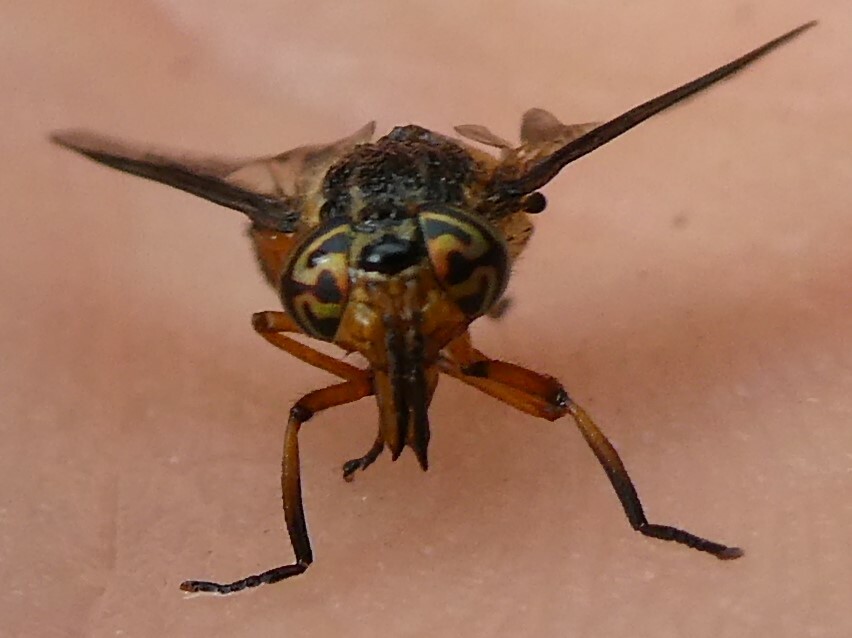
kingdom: Animalia
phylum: Arthropoda
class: Insecta
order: Diptera
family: Tabanidae
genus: Chrysops
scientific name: Chrysops indus
